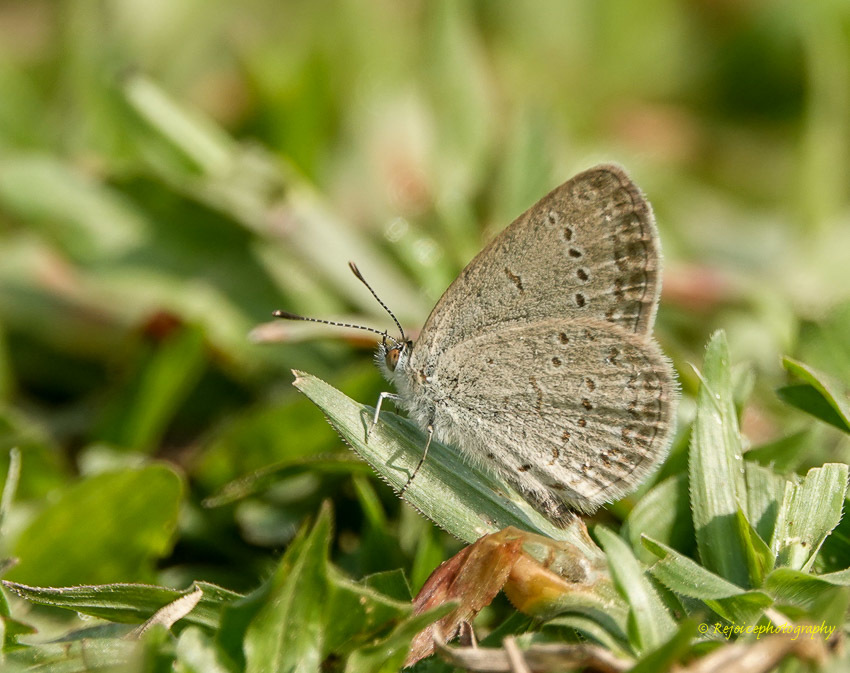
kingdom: Animalia
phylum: Arthropoda
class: Insecta
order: Lepidoptera
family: Lycaenidae
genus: Zizina
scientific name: Zizina otis
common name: Lesser grass blue
